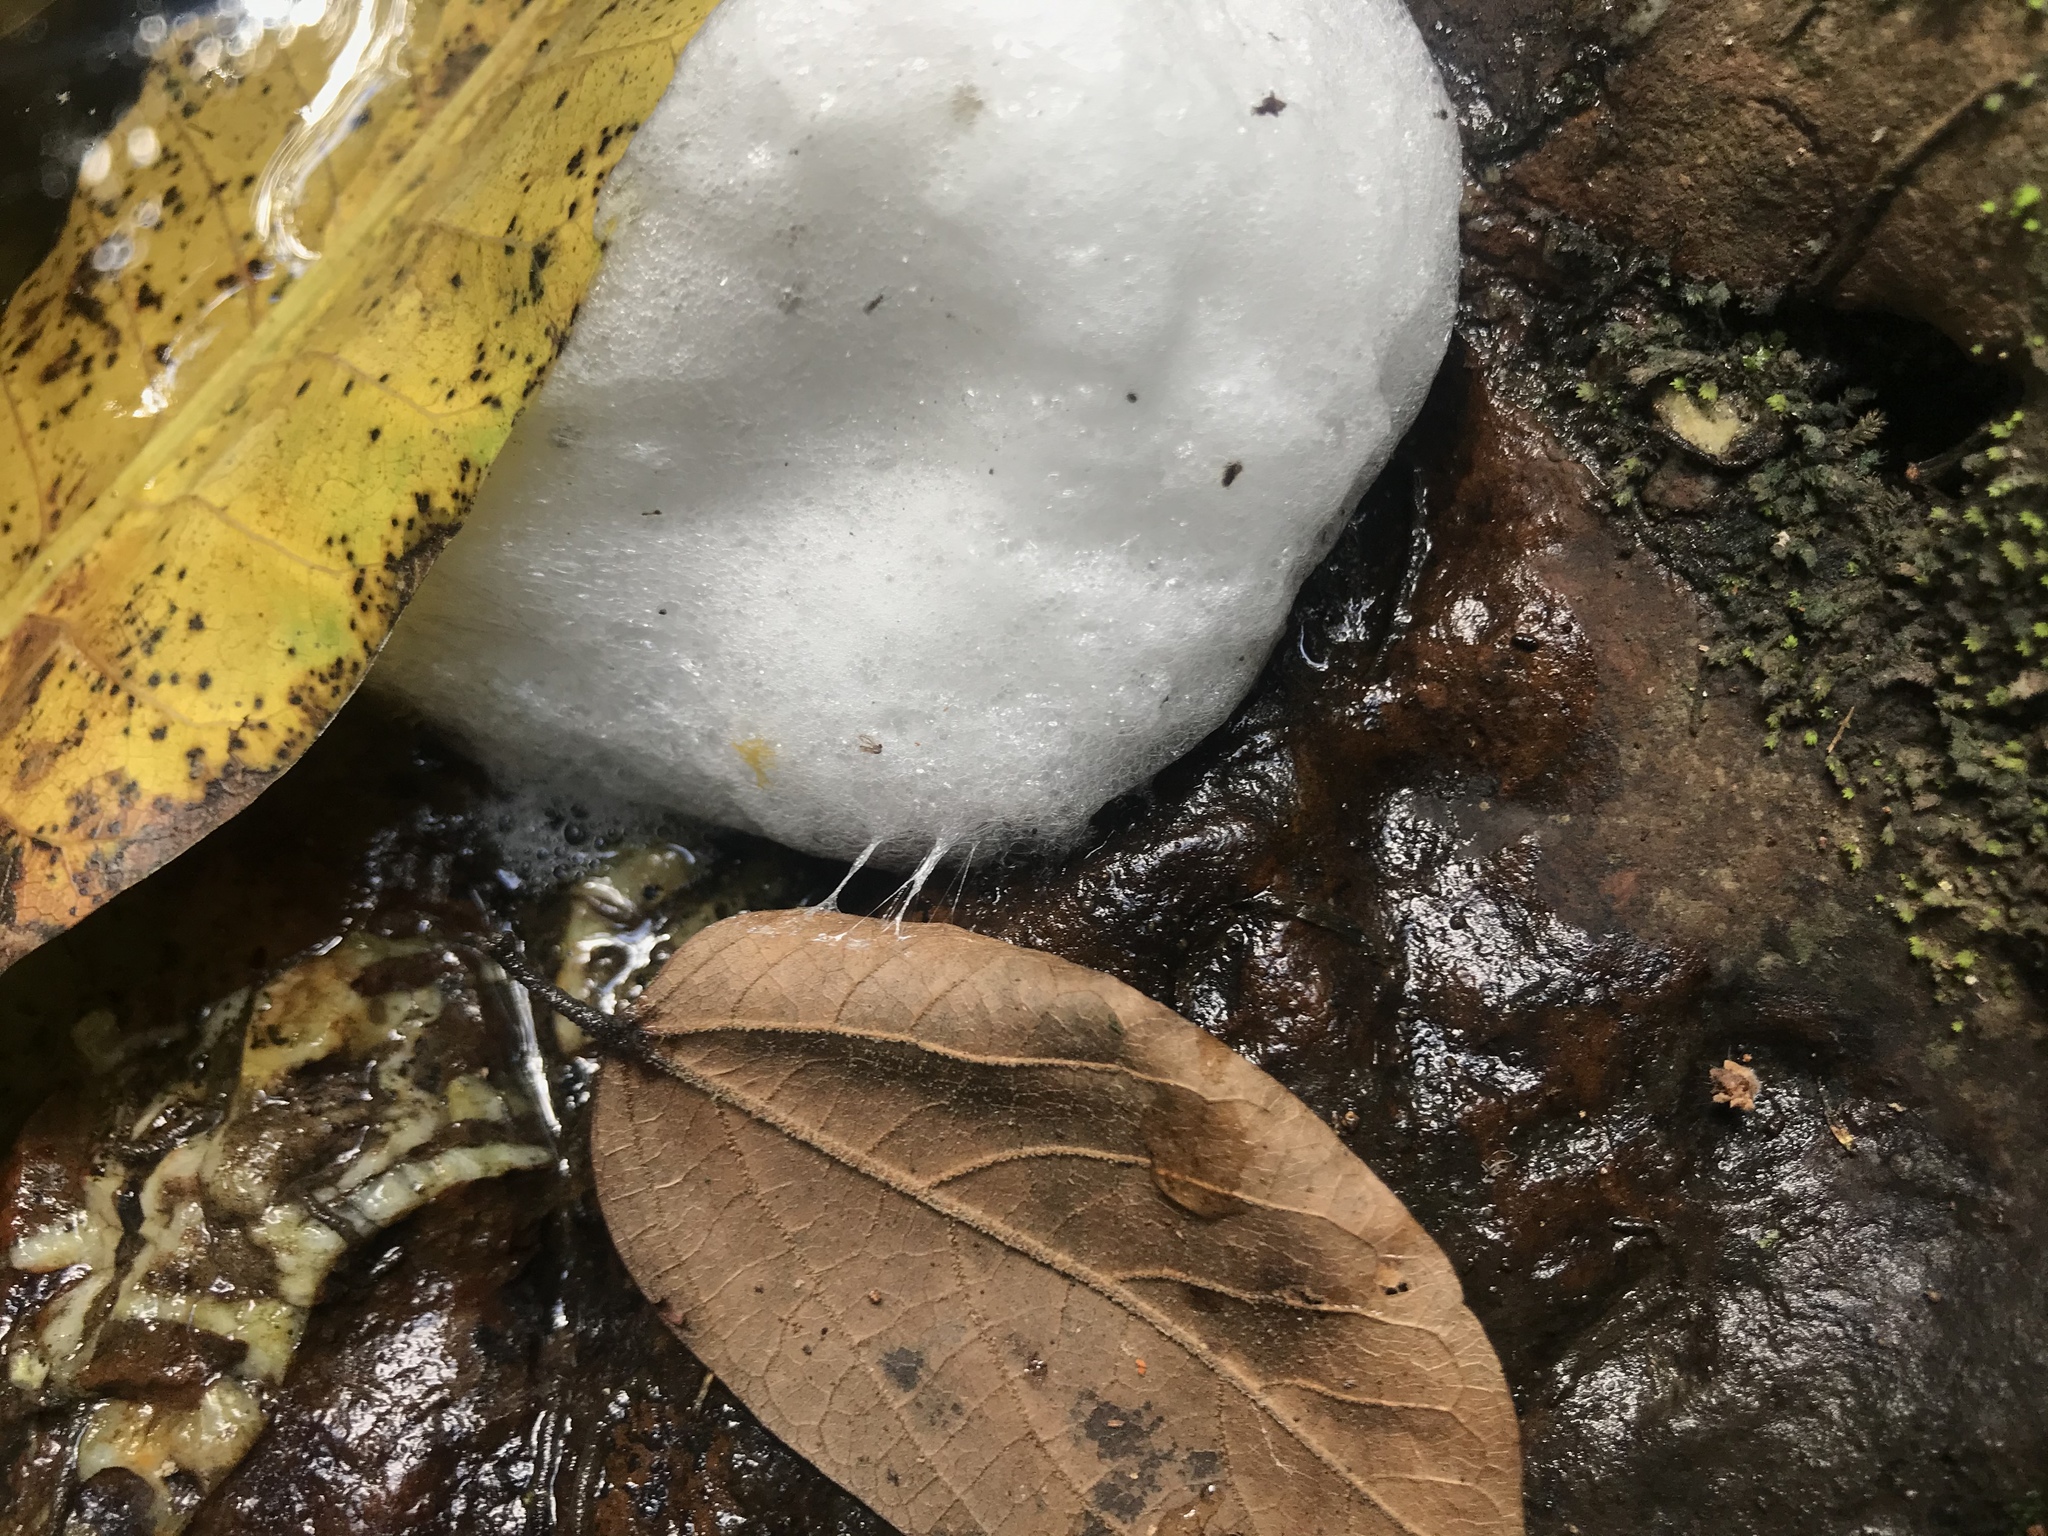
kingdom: Animalia
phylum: Chordata
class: Amphibia
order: Anura
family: Leptodactylidae
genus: Engystomops
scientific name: Engystomops pustulosus
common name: Tungara frog
